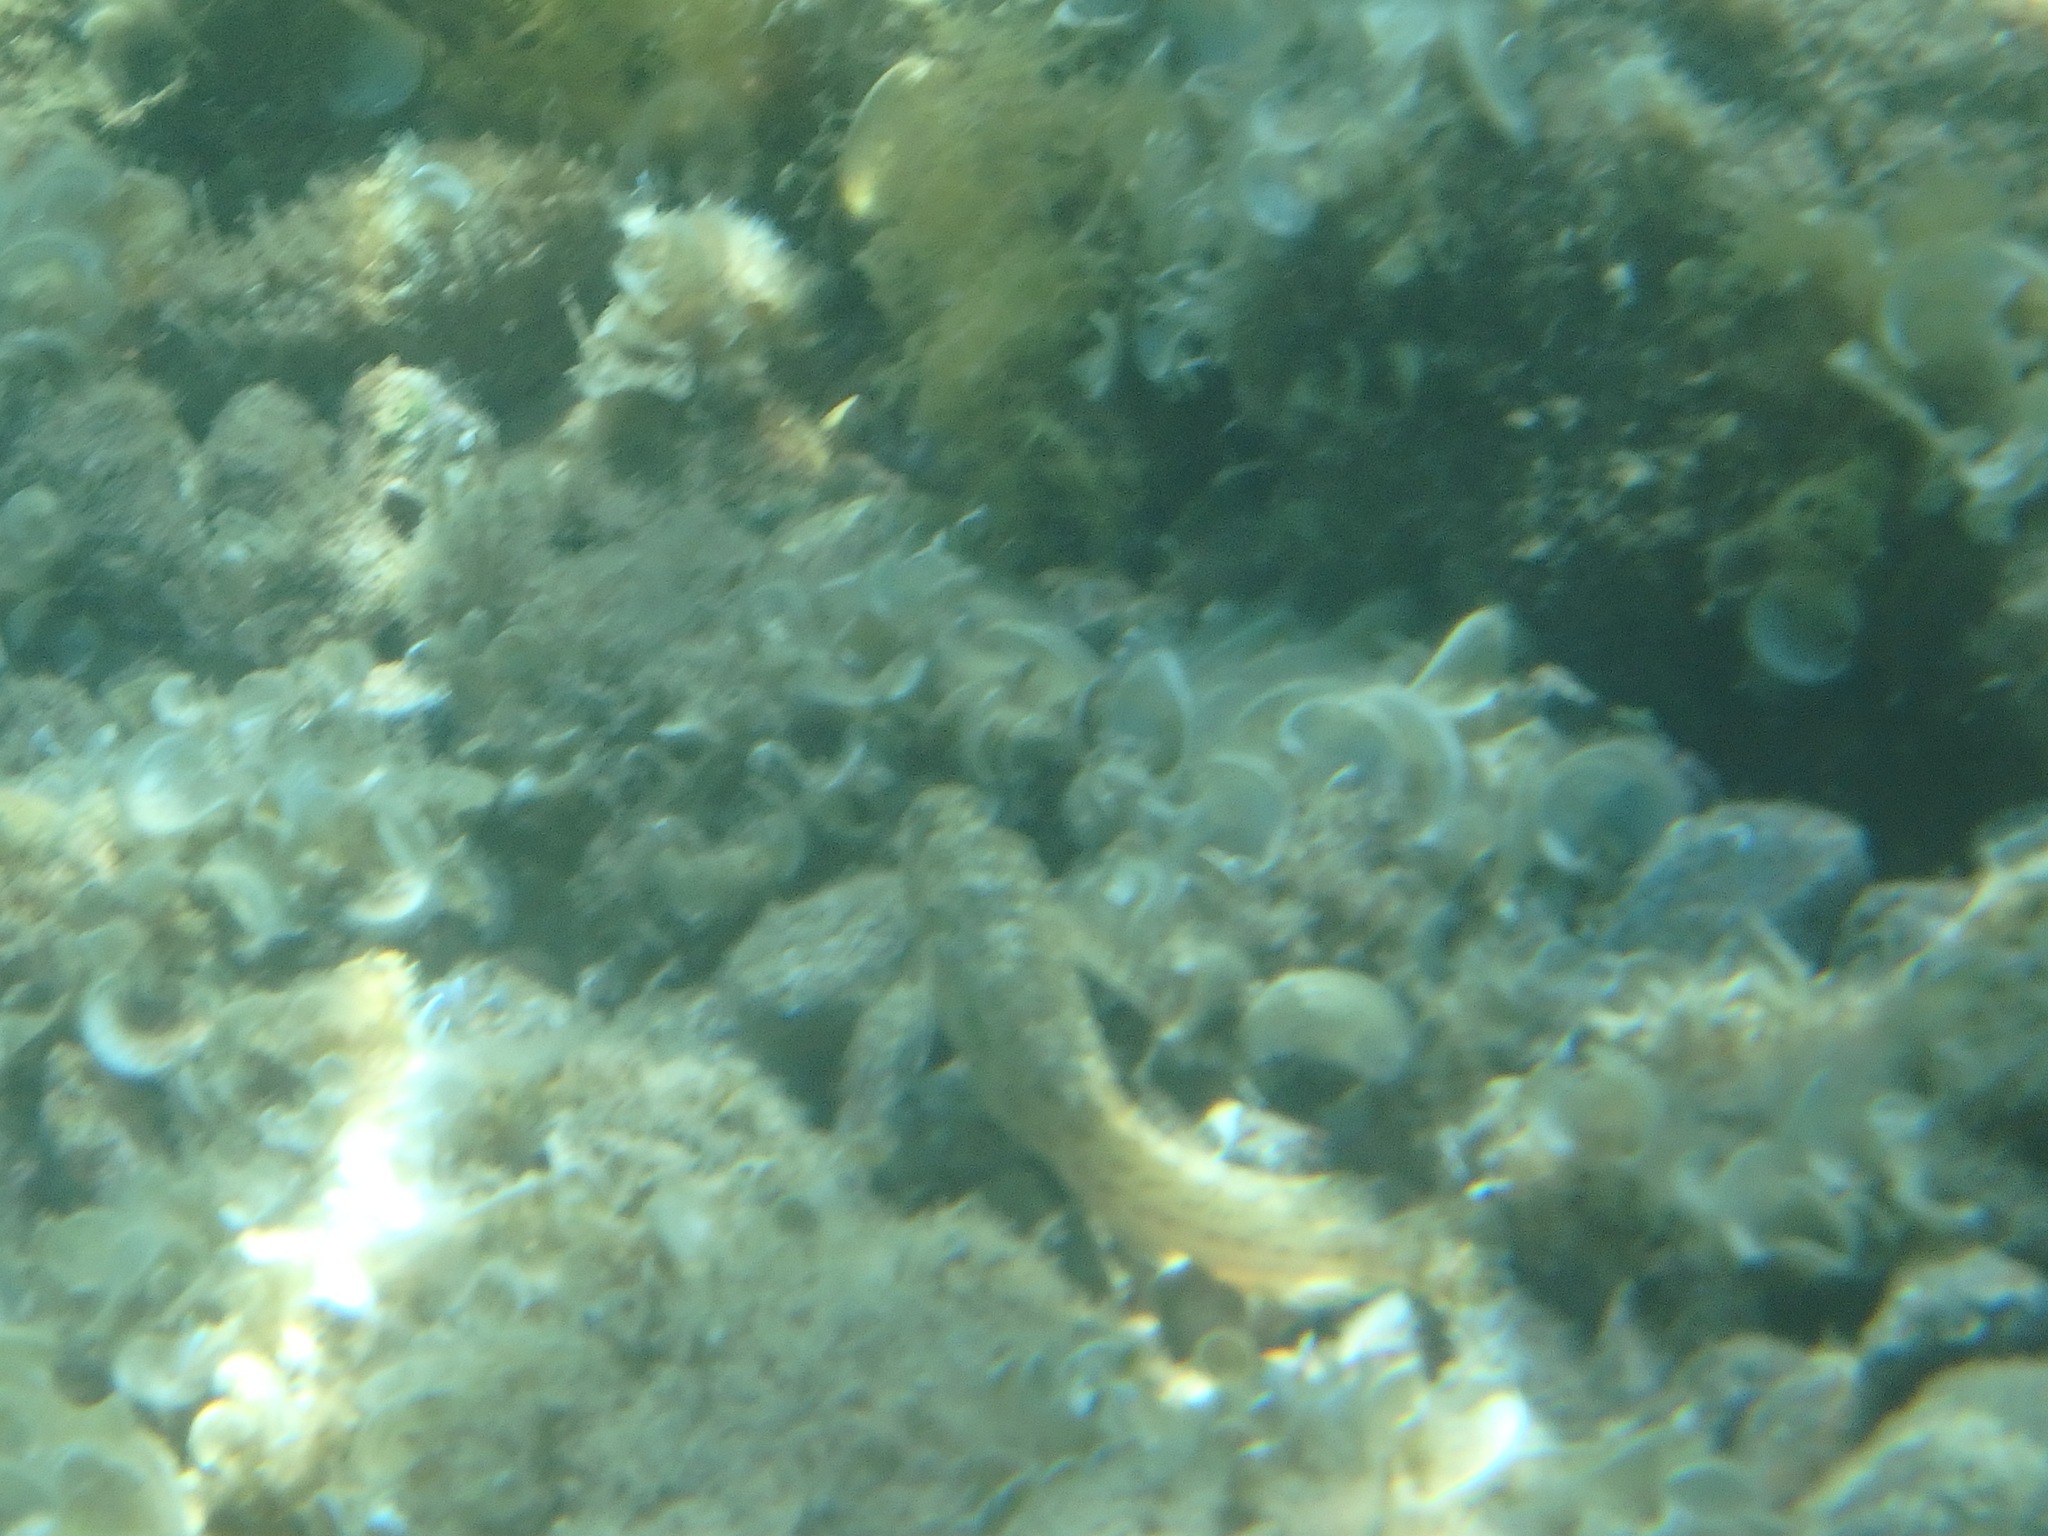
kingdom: Animalia
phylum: Chordata
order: Perciformes
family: Blenniidae
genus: Parablennius
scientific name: Parablennius sanguinolentus
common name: Black sea blenny
